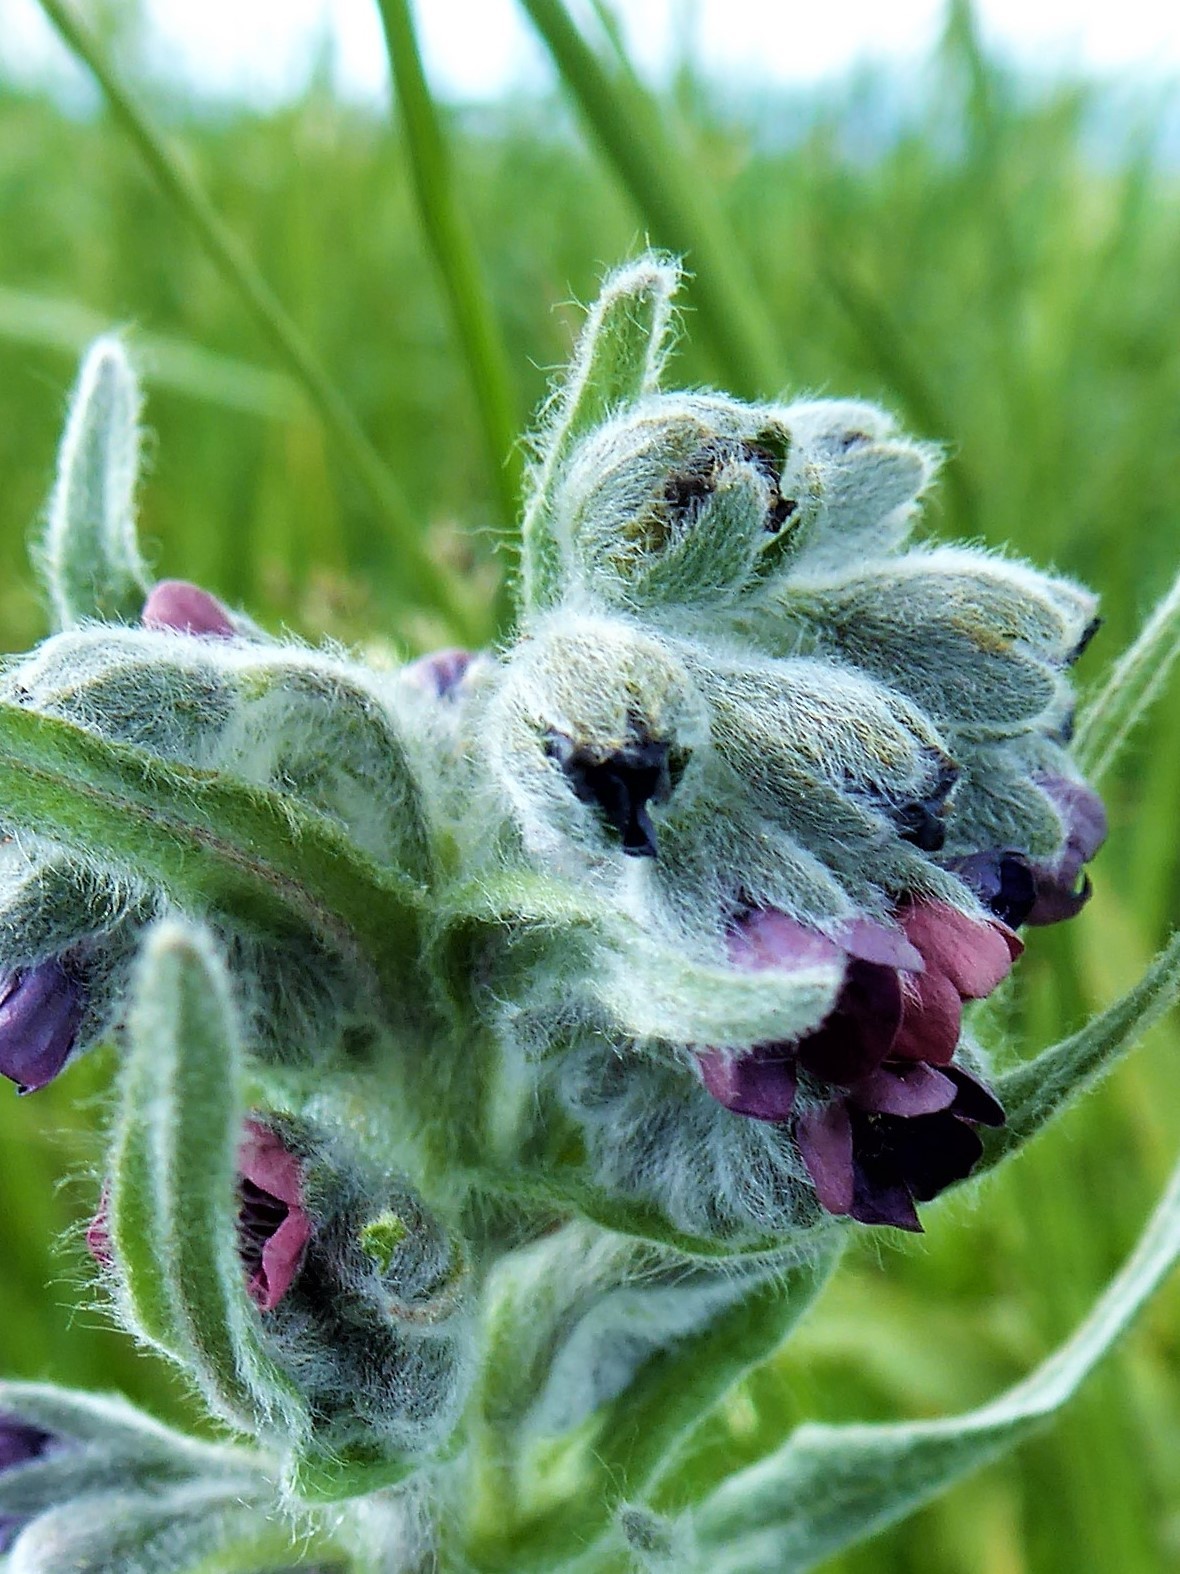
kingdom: Plantae
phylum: Tracheophyta
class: Magnoliopsida
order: Boraginales
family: Boraginaceae
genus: Cynoglossum
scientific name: Cynoglossum officinale
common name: Hound's-tongue
